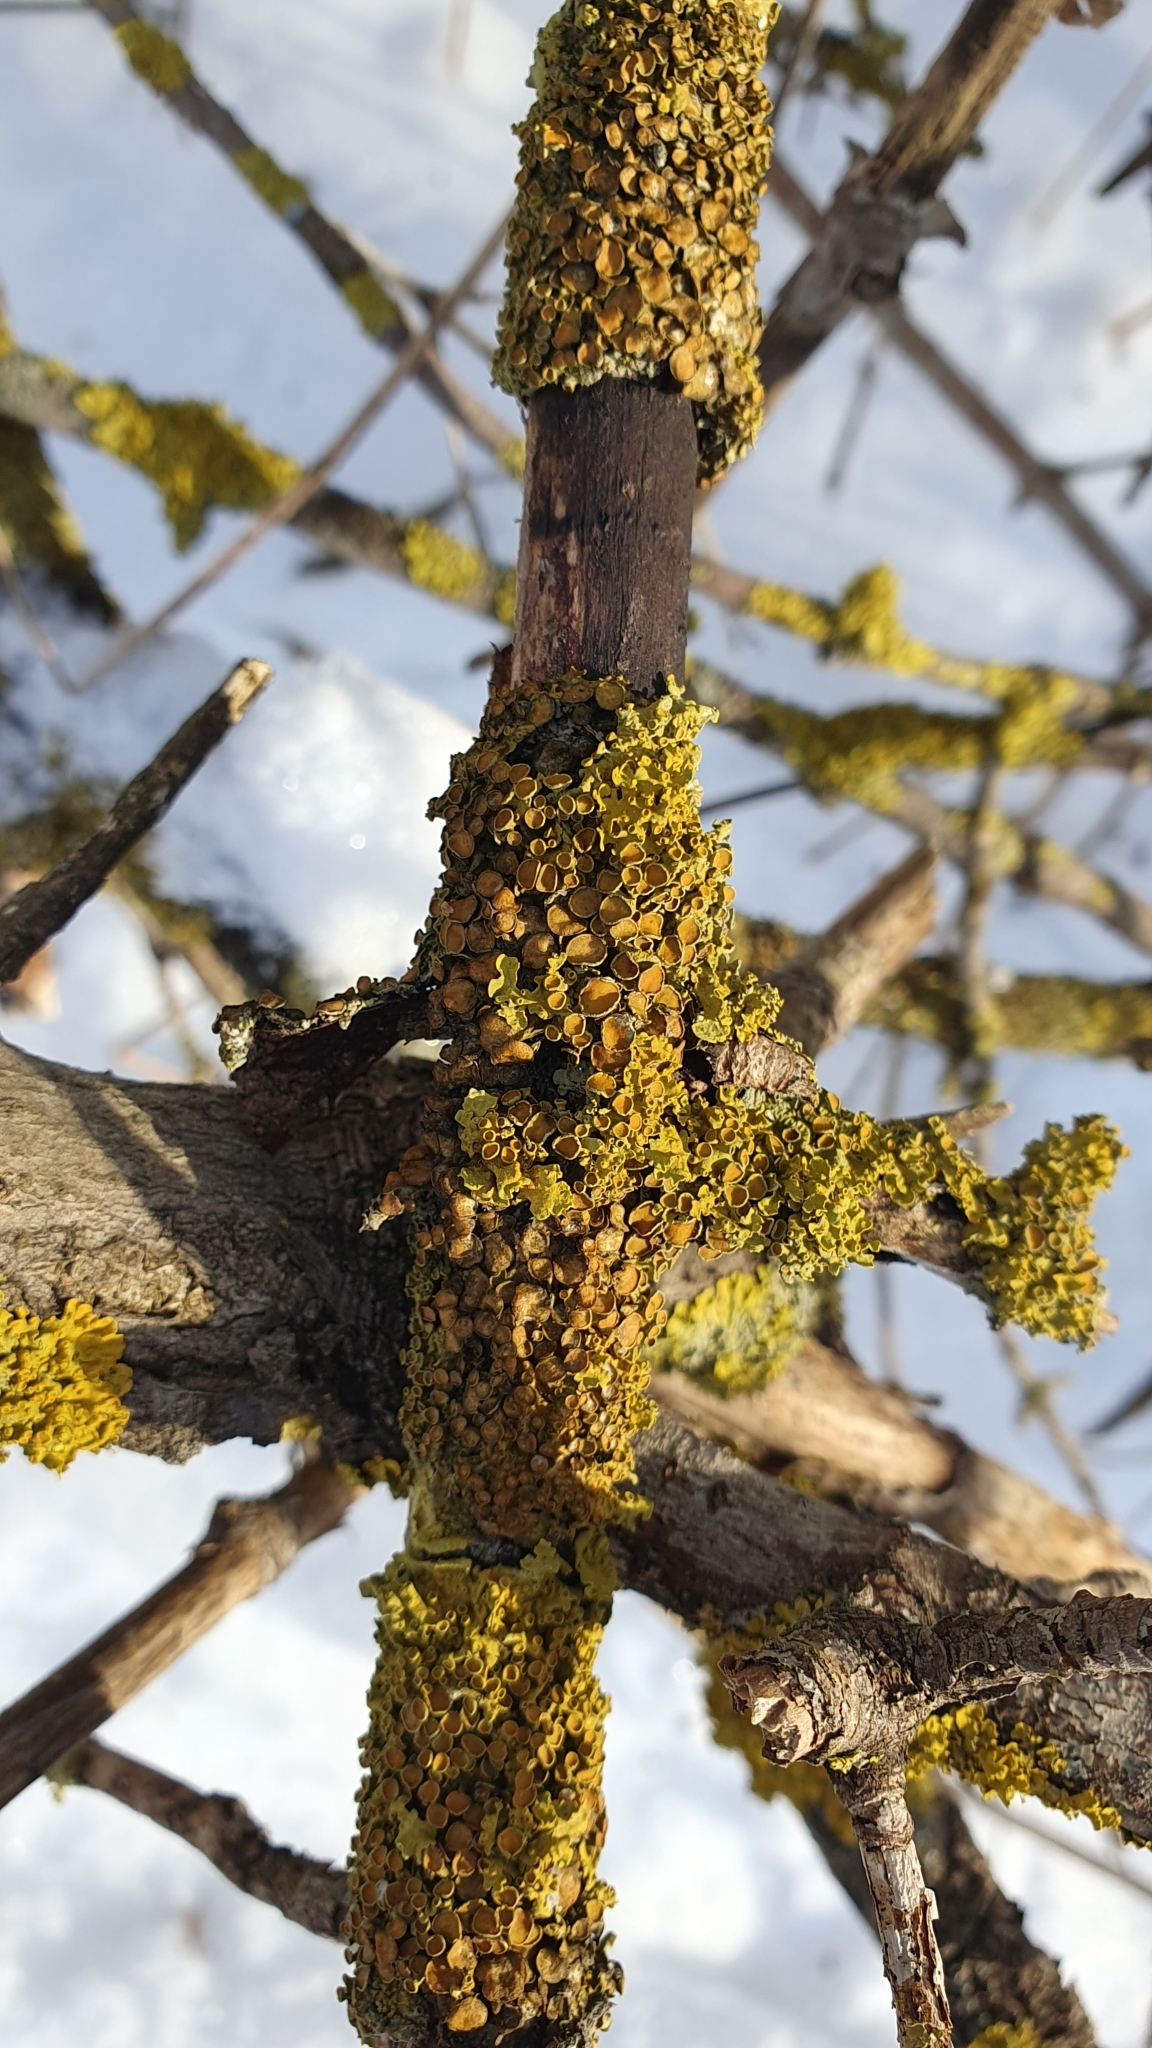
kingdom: Fungi
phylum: Ascomycota
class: Lecanoromycetes
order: Teloschistales
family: Teloschistaceae
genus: Xanthoria
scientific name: Xanthoria parietina
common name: Common orange lichen
